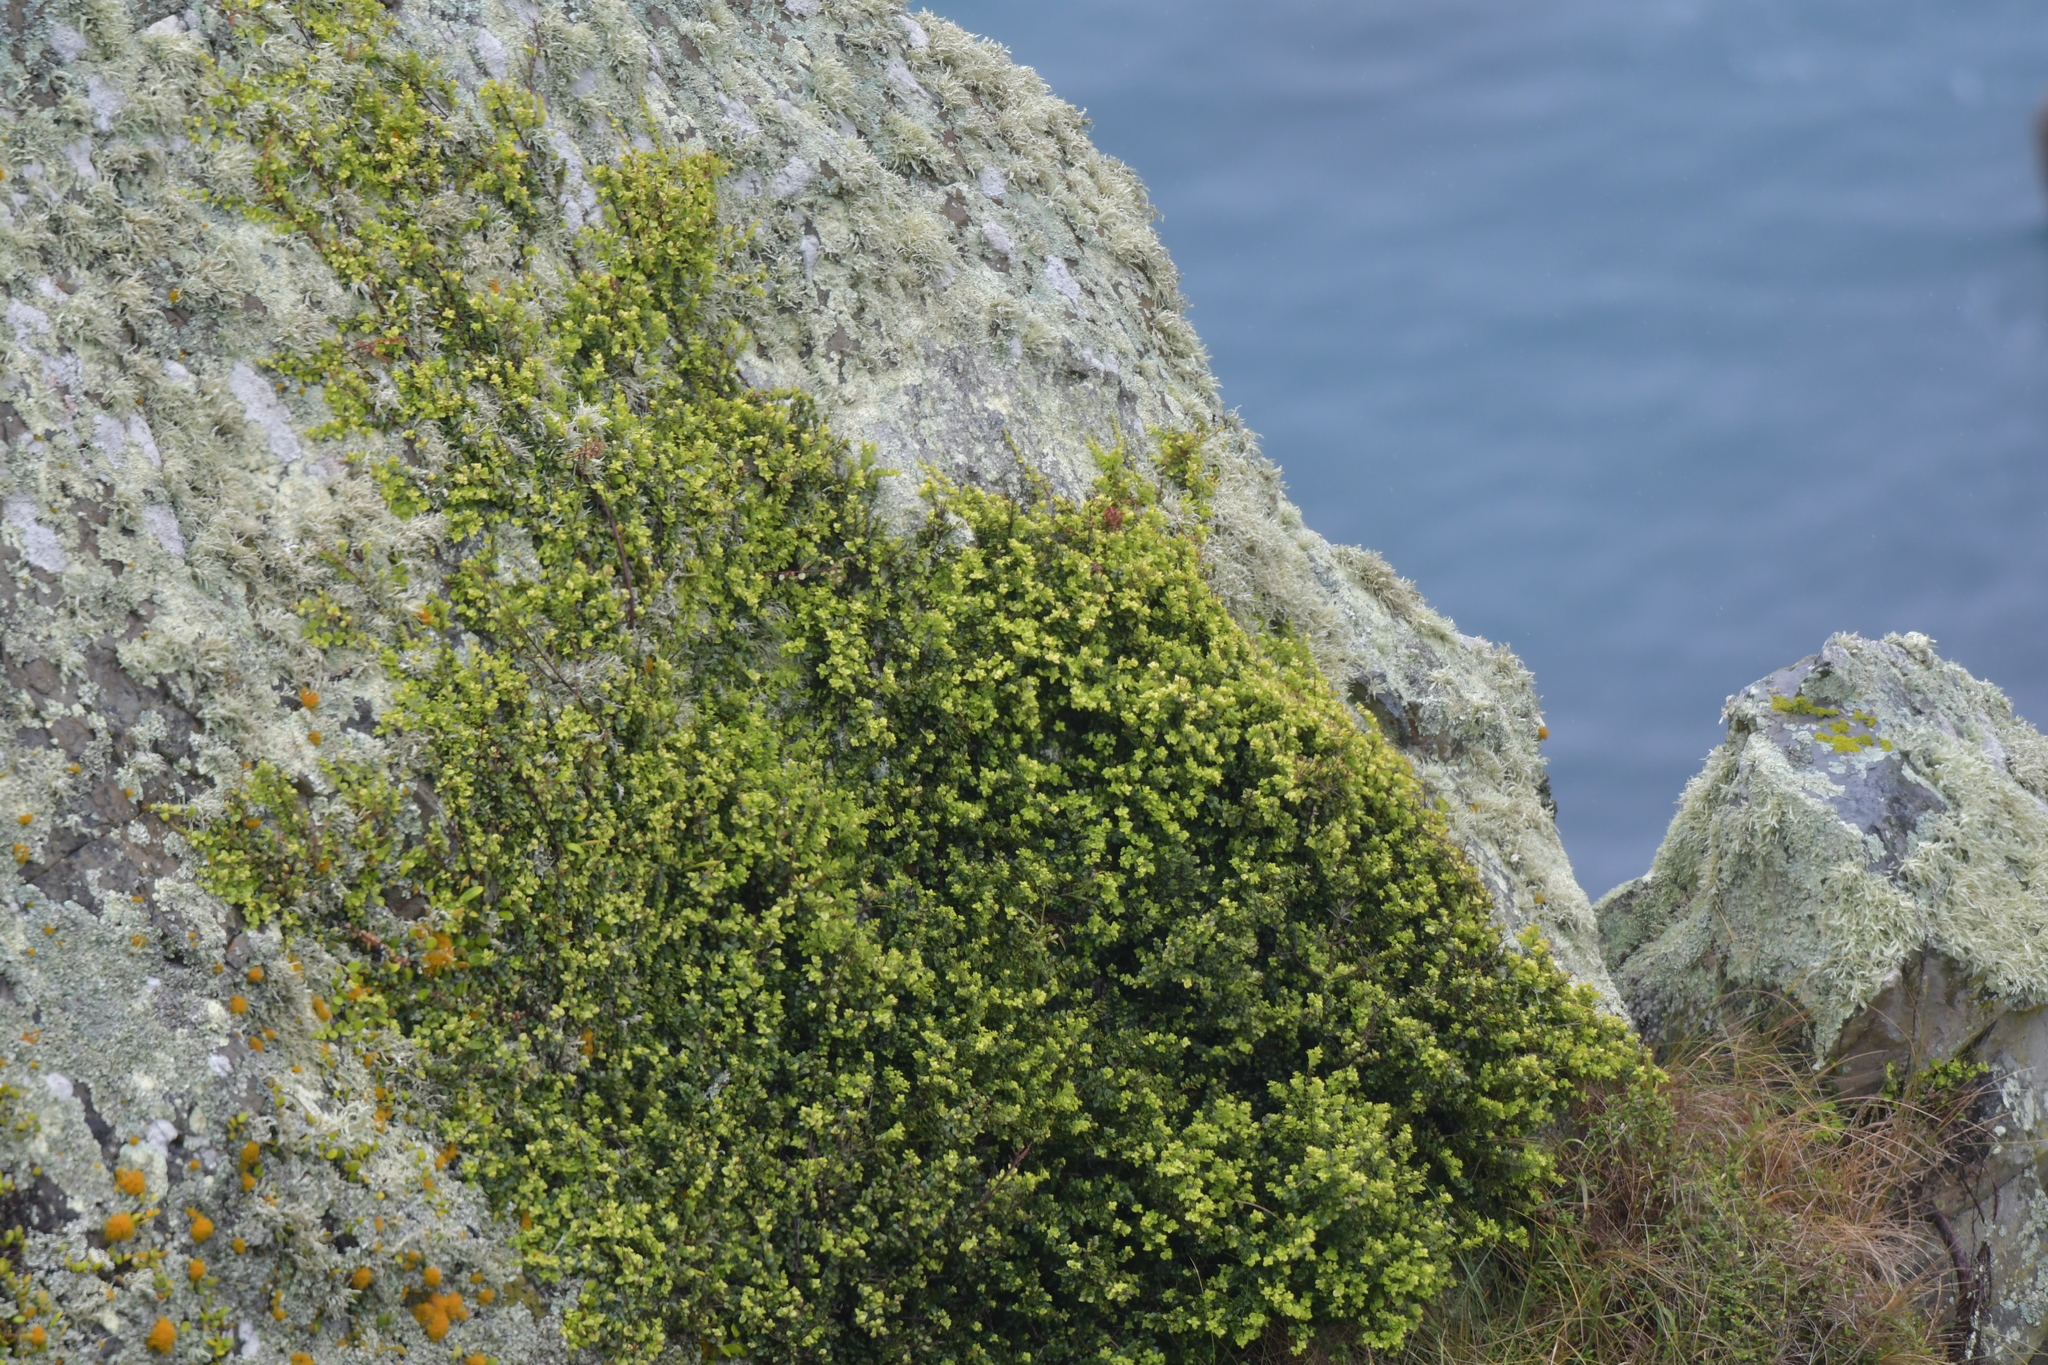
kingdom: Plantae
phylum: Tracheophyta
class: Magnoliopsida
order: Myrtales
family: Myrtaceae
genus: Metrosideros
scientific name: Metrosideros perforata
